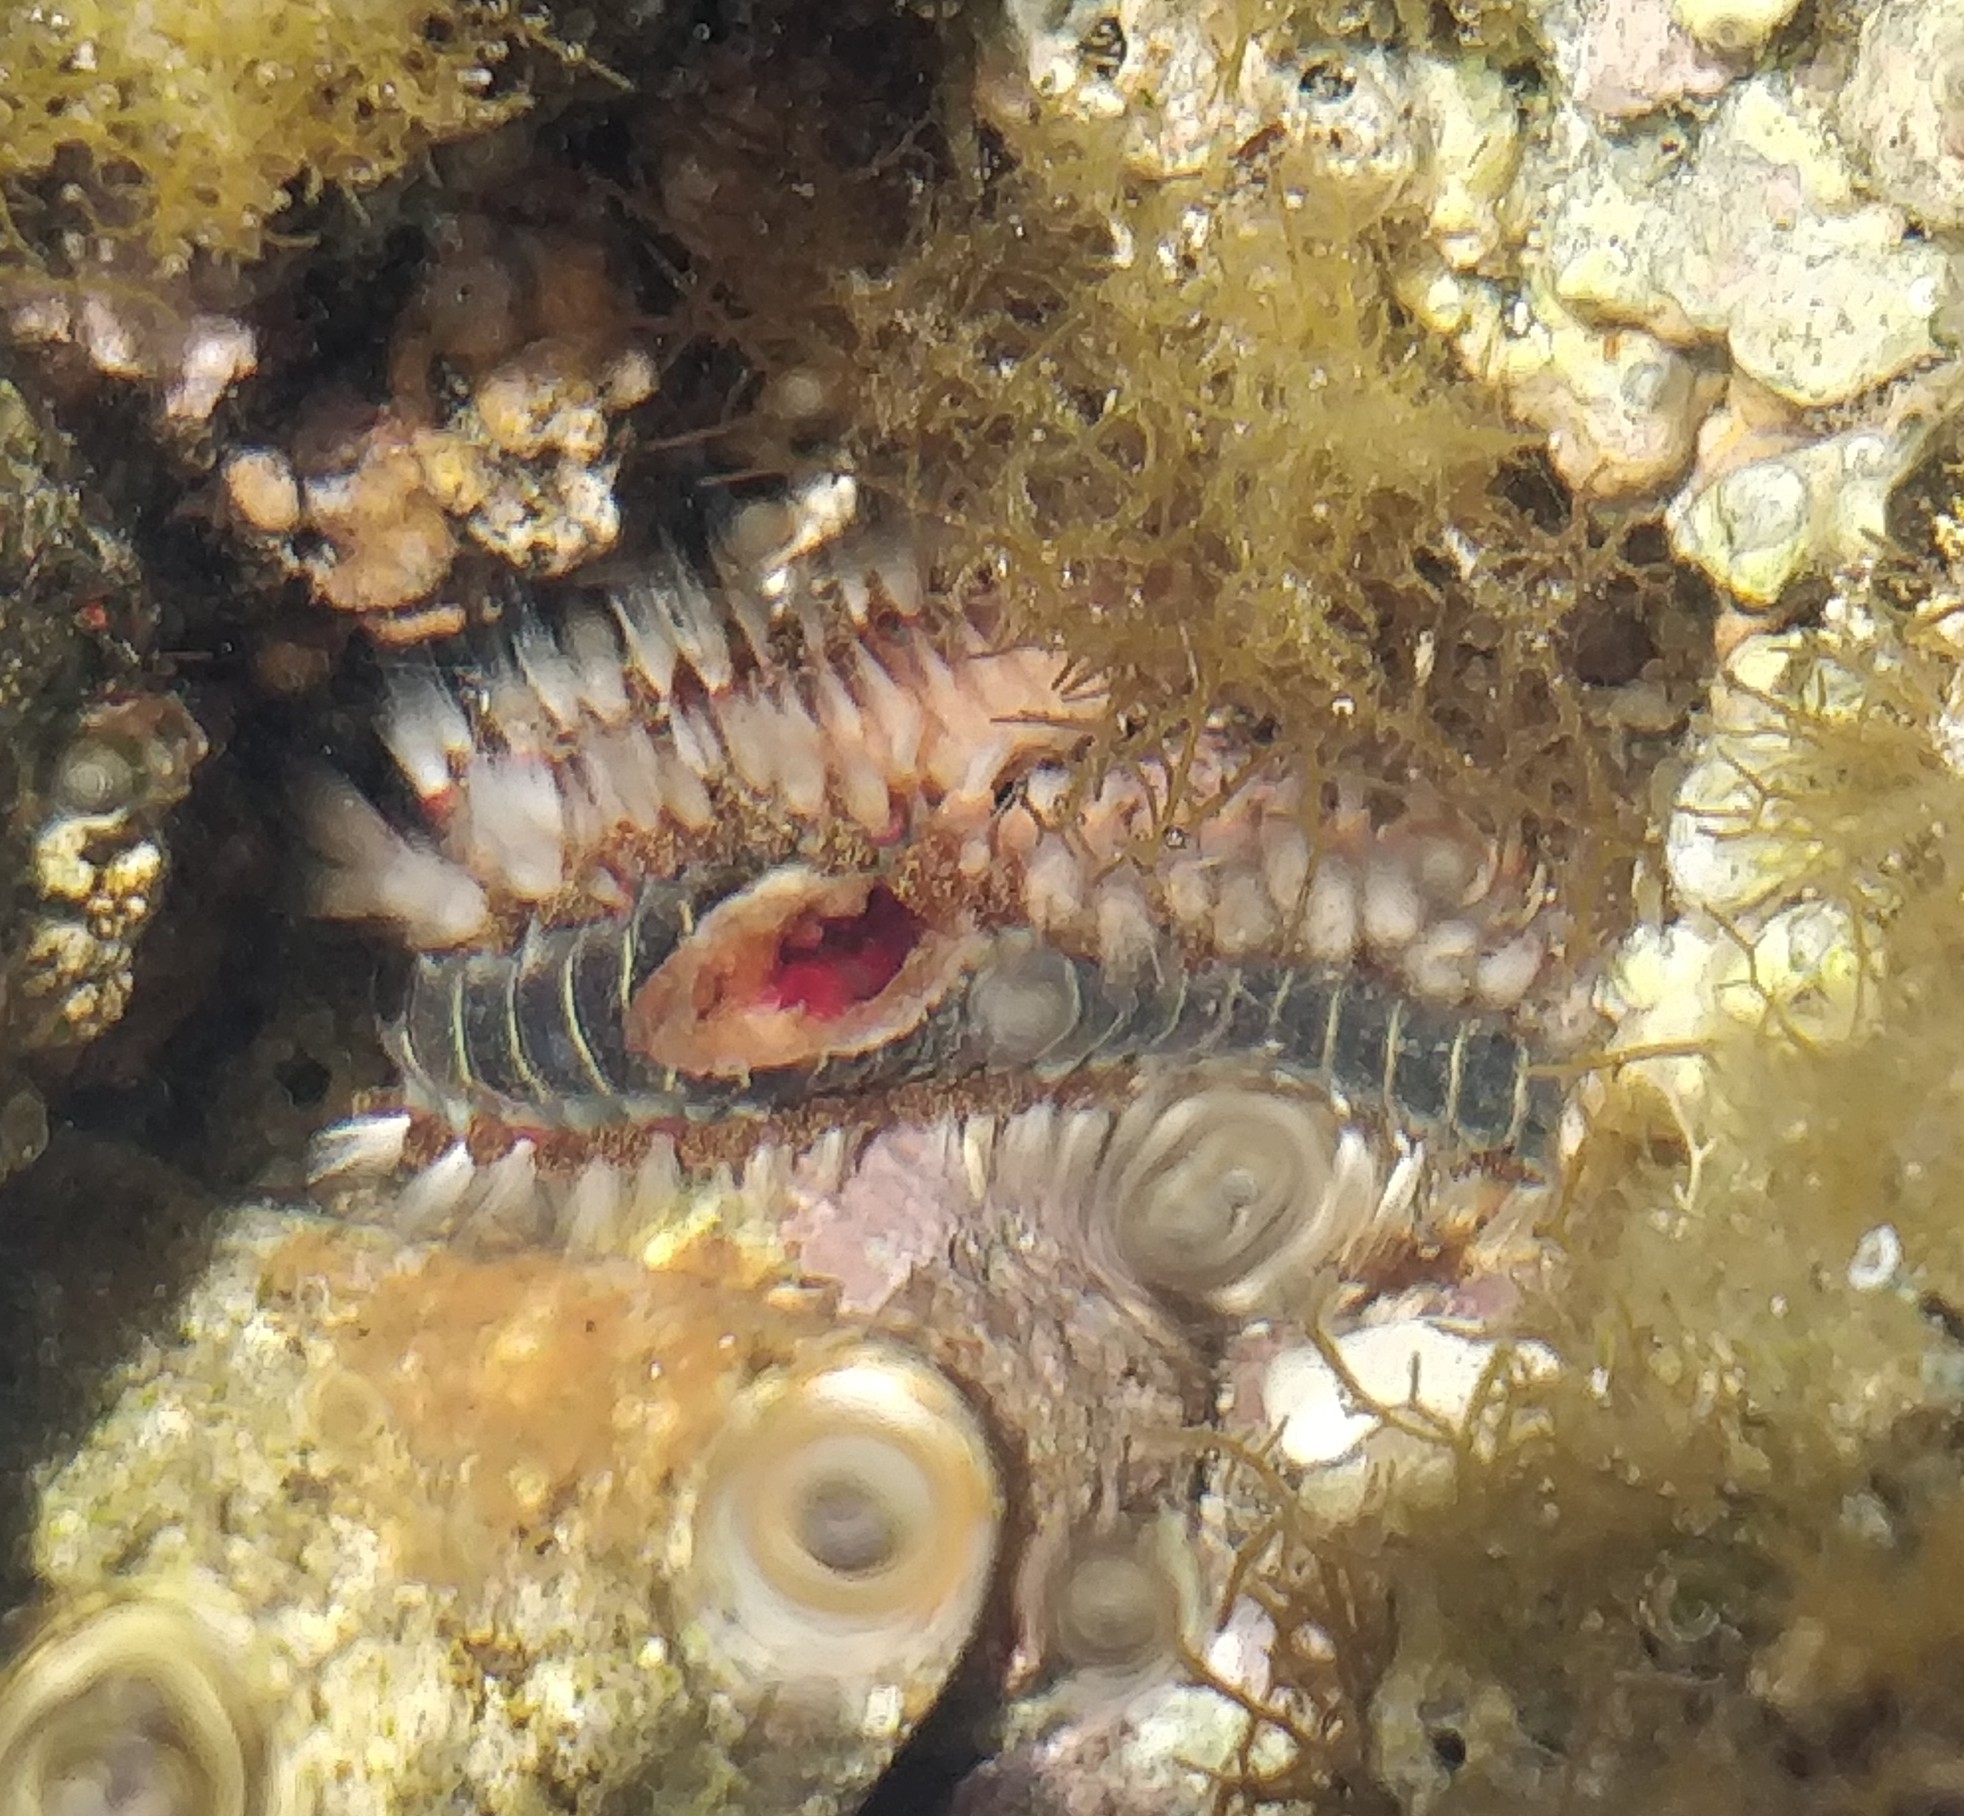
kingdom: Animalia
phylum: Annelida
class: Polychaeta
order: Amphinomida
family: Amphinomidae
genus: Hermodice
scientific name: Hermodice carunculata
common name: Bearded fireworm
